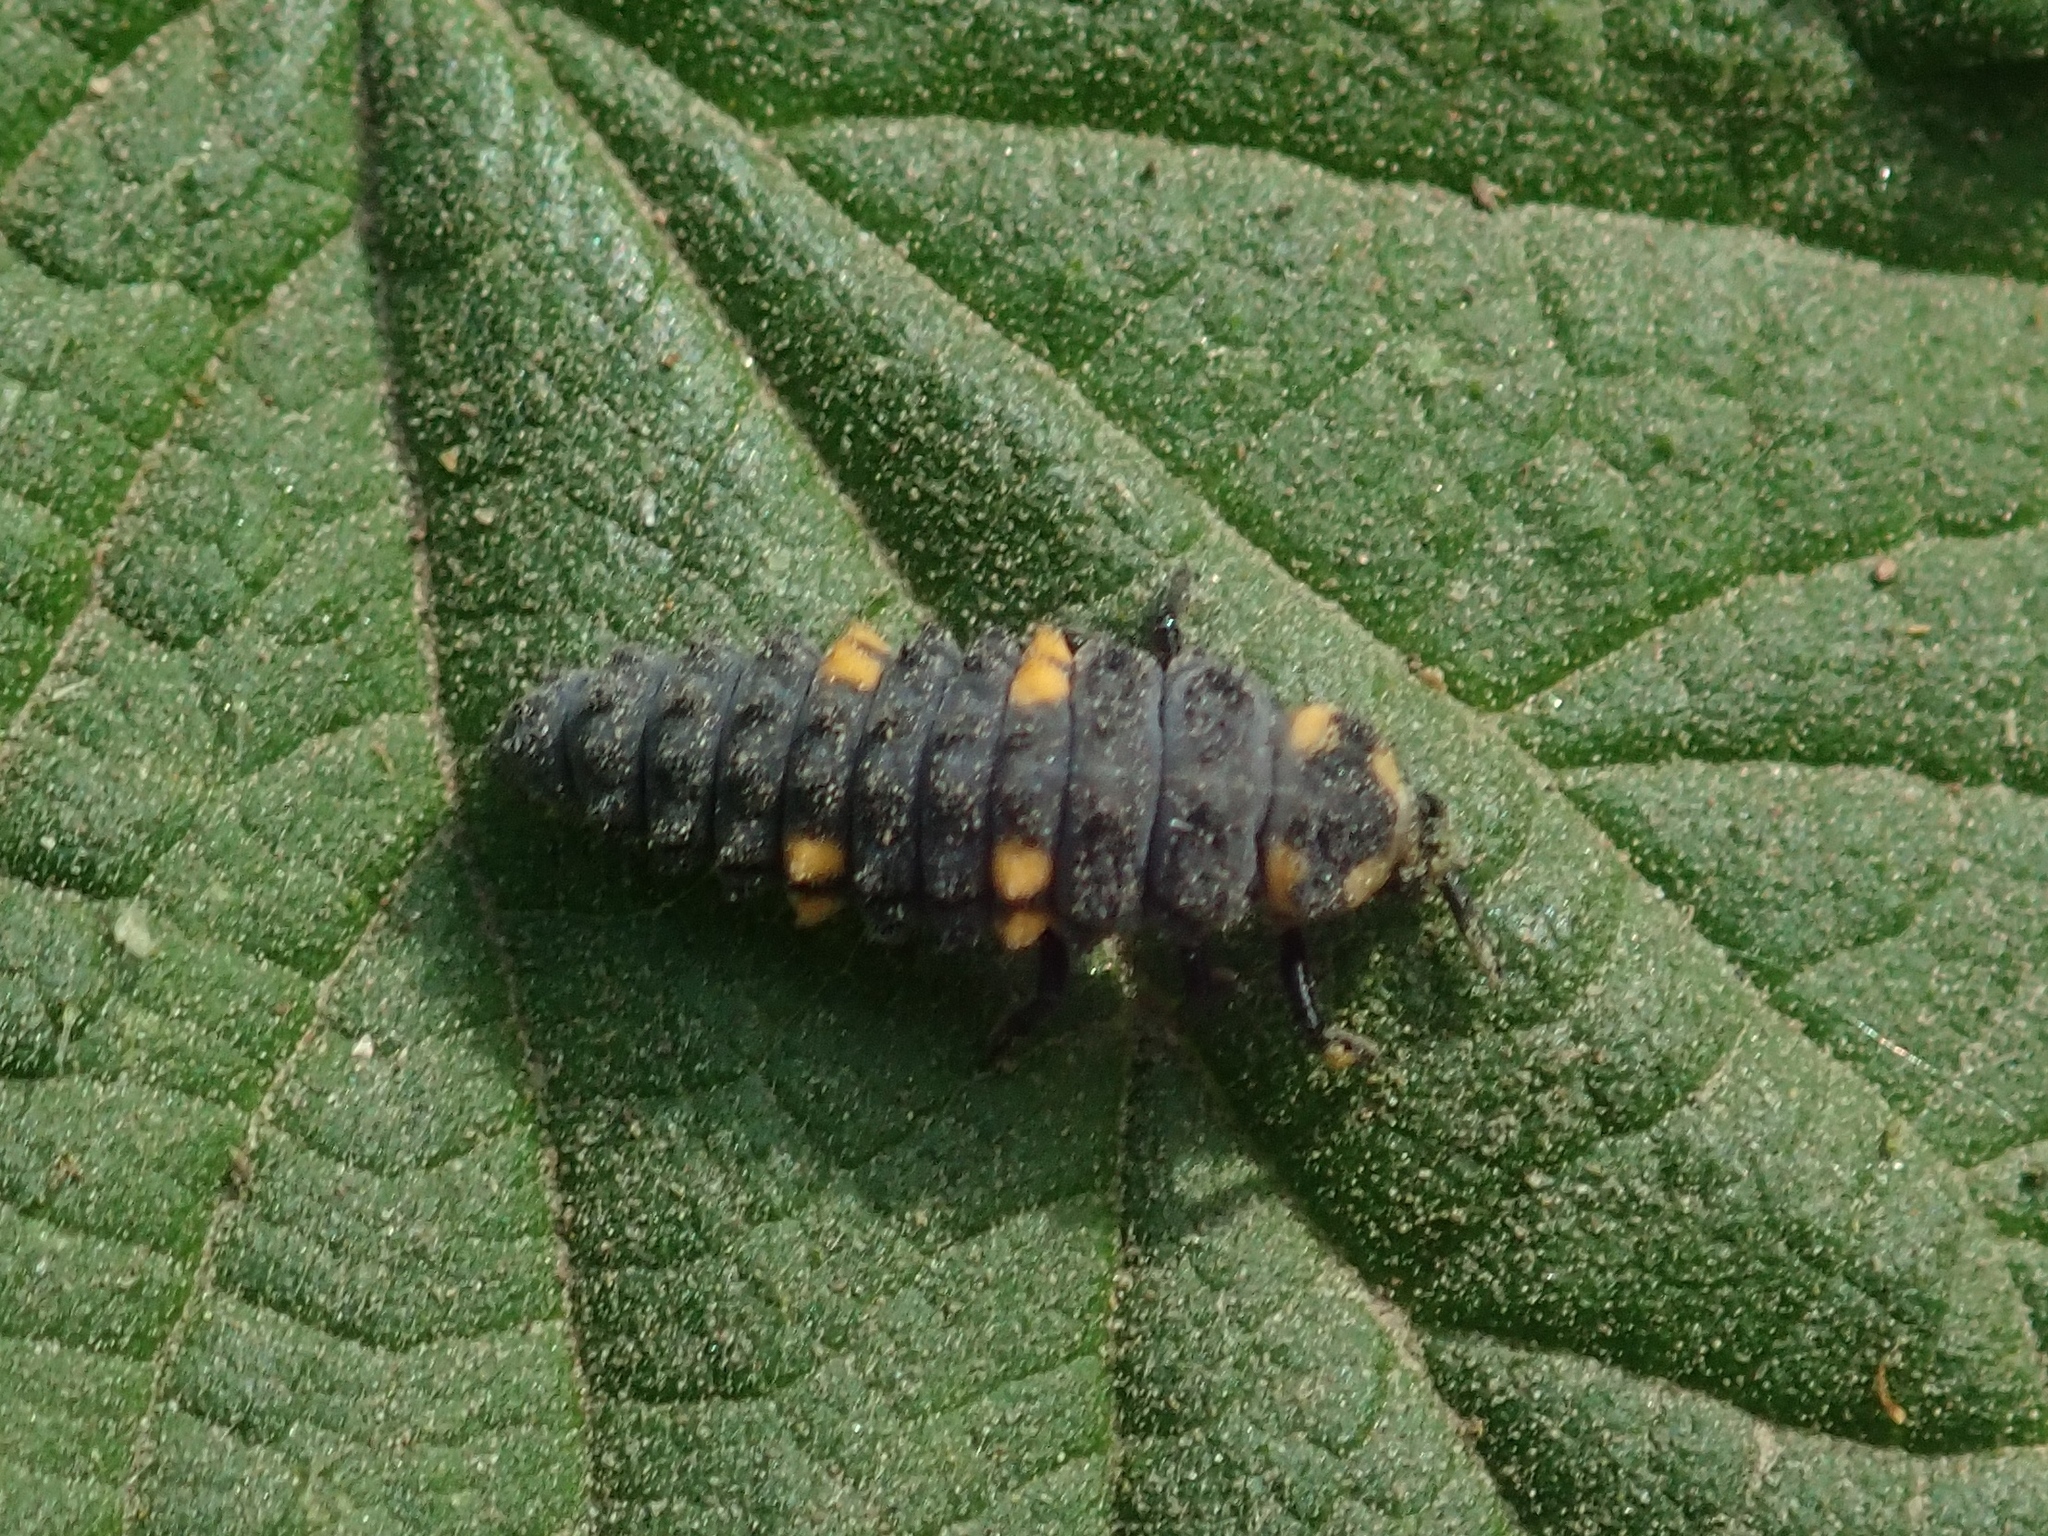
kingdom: Animalia
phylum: Arthropoda
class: Insecta
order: Coleoptera
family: Coccinellidae
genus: Coccinella
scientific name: Coccinella septempunctata
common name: Sevenspotted lady beetle
